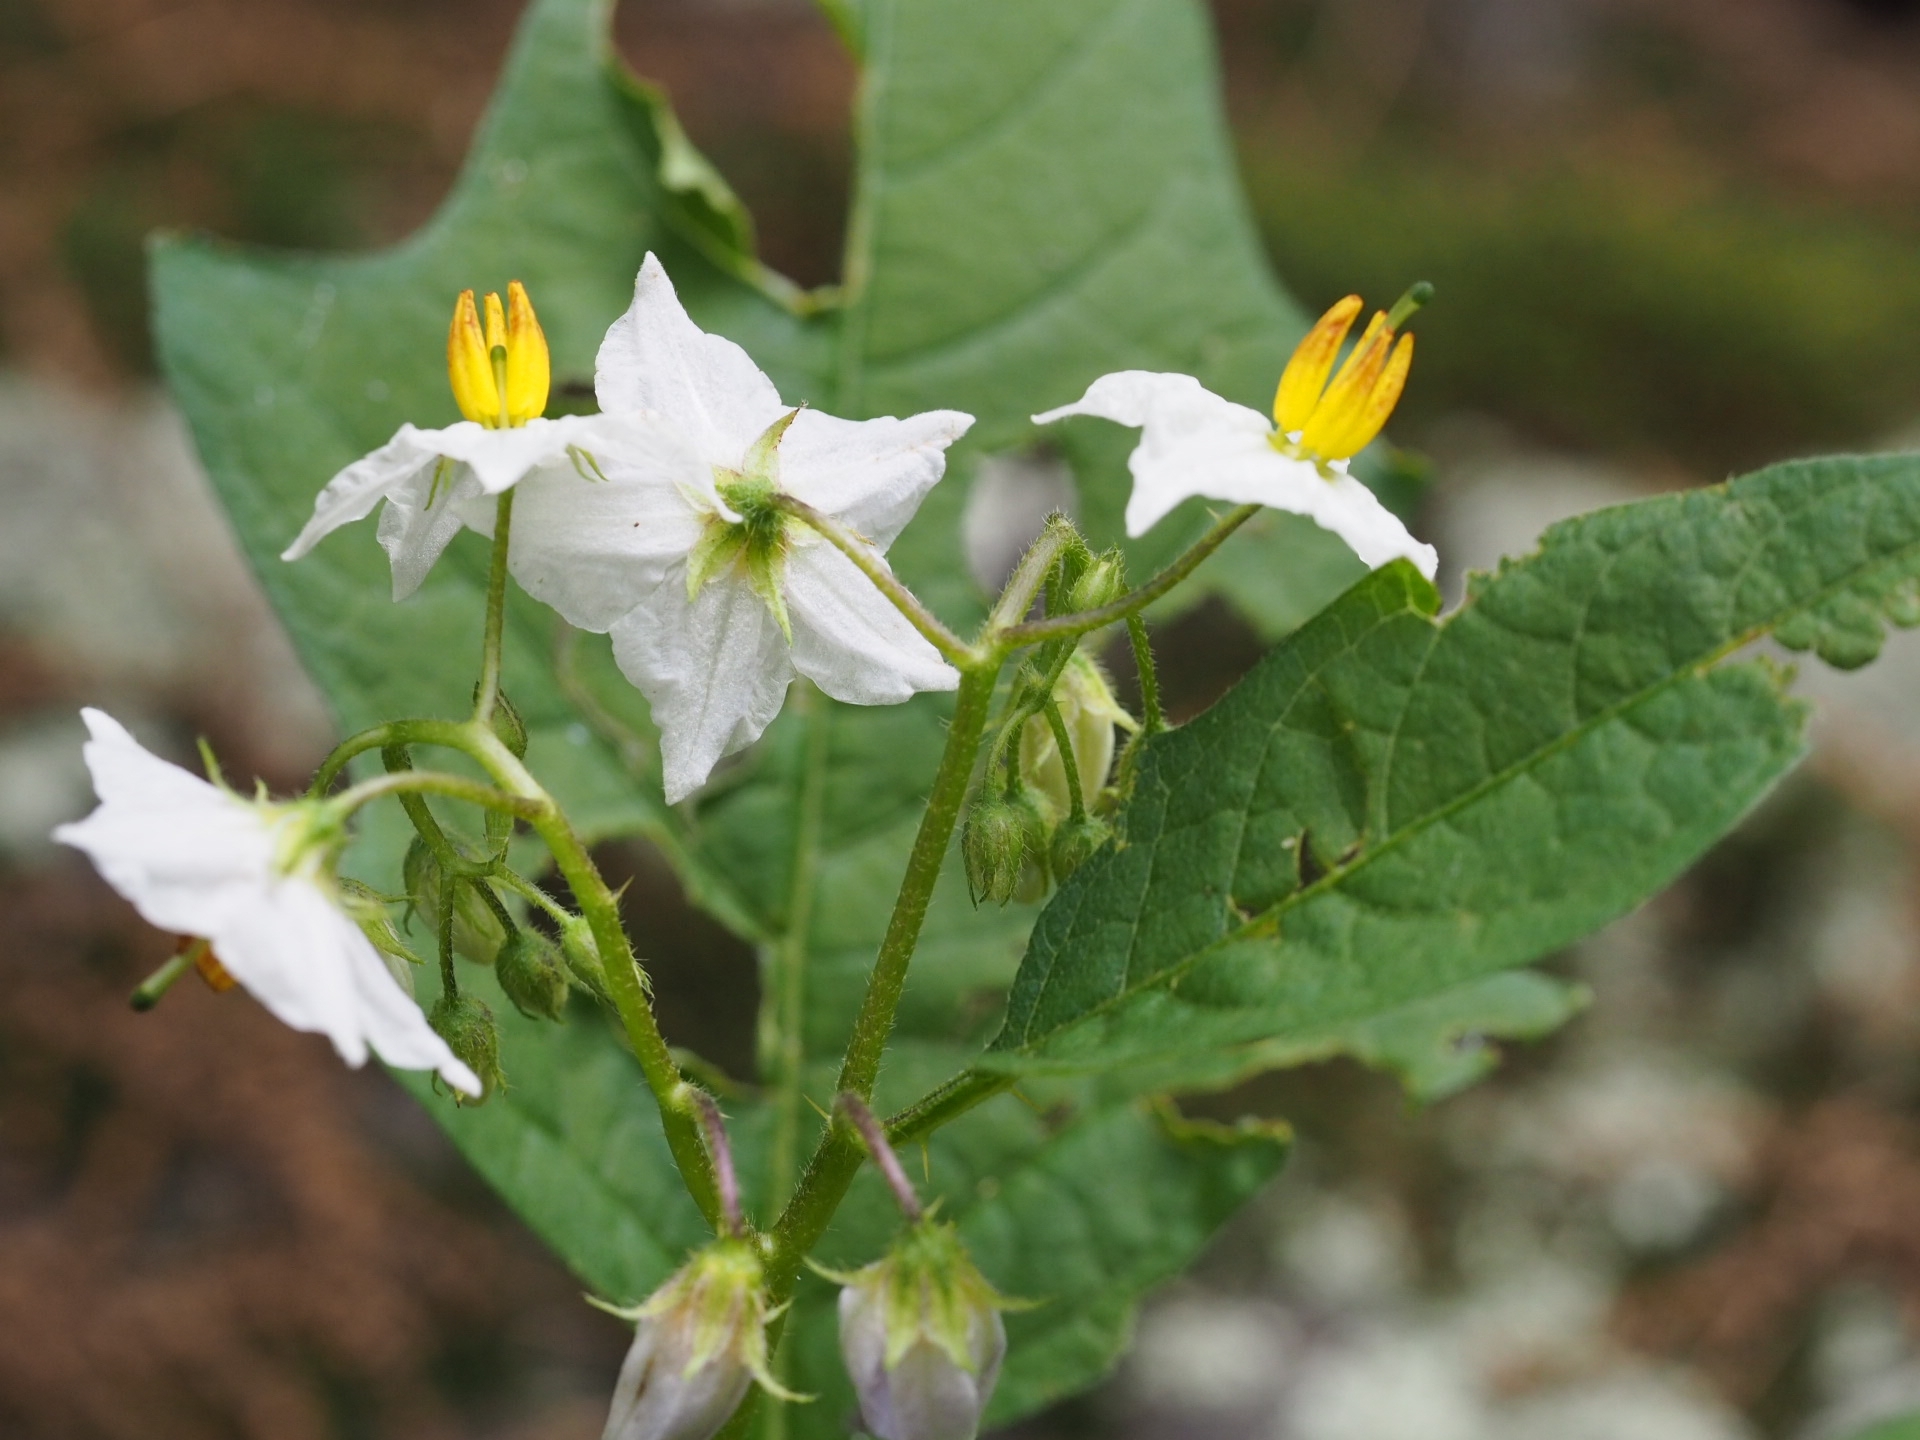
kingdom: Plantae
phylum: Tracheophyta
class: Magnoliopsida
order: Solanales
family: Solanaceae
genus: Solanum
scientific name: Solanum carolinense
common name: Horse-nettle
